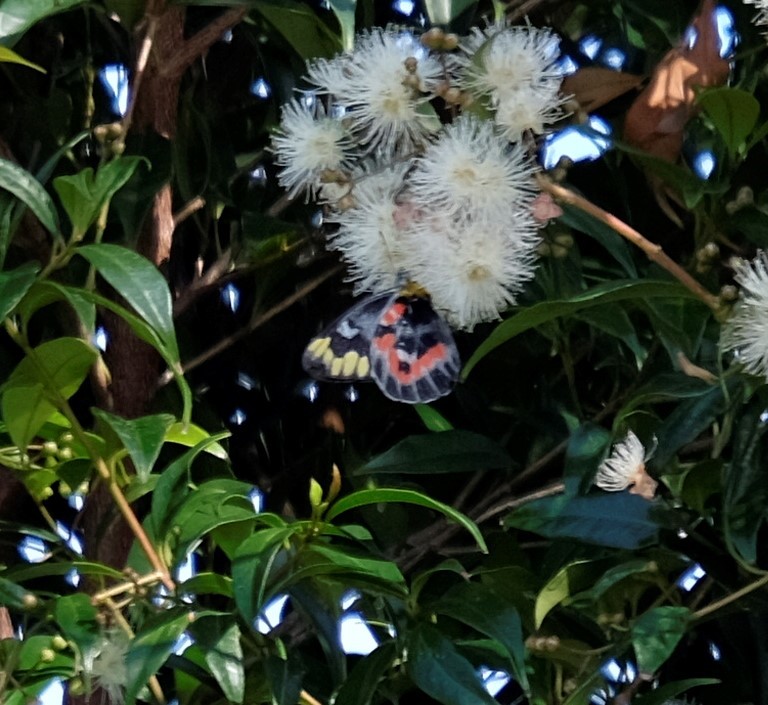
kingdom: Animalia
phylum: Arthropoda
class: Insecta
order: Lepidoptera
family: Pieridae
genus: Delias
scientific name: Delias harpalyce
